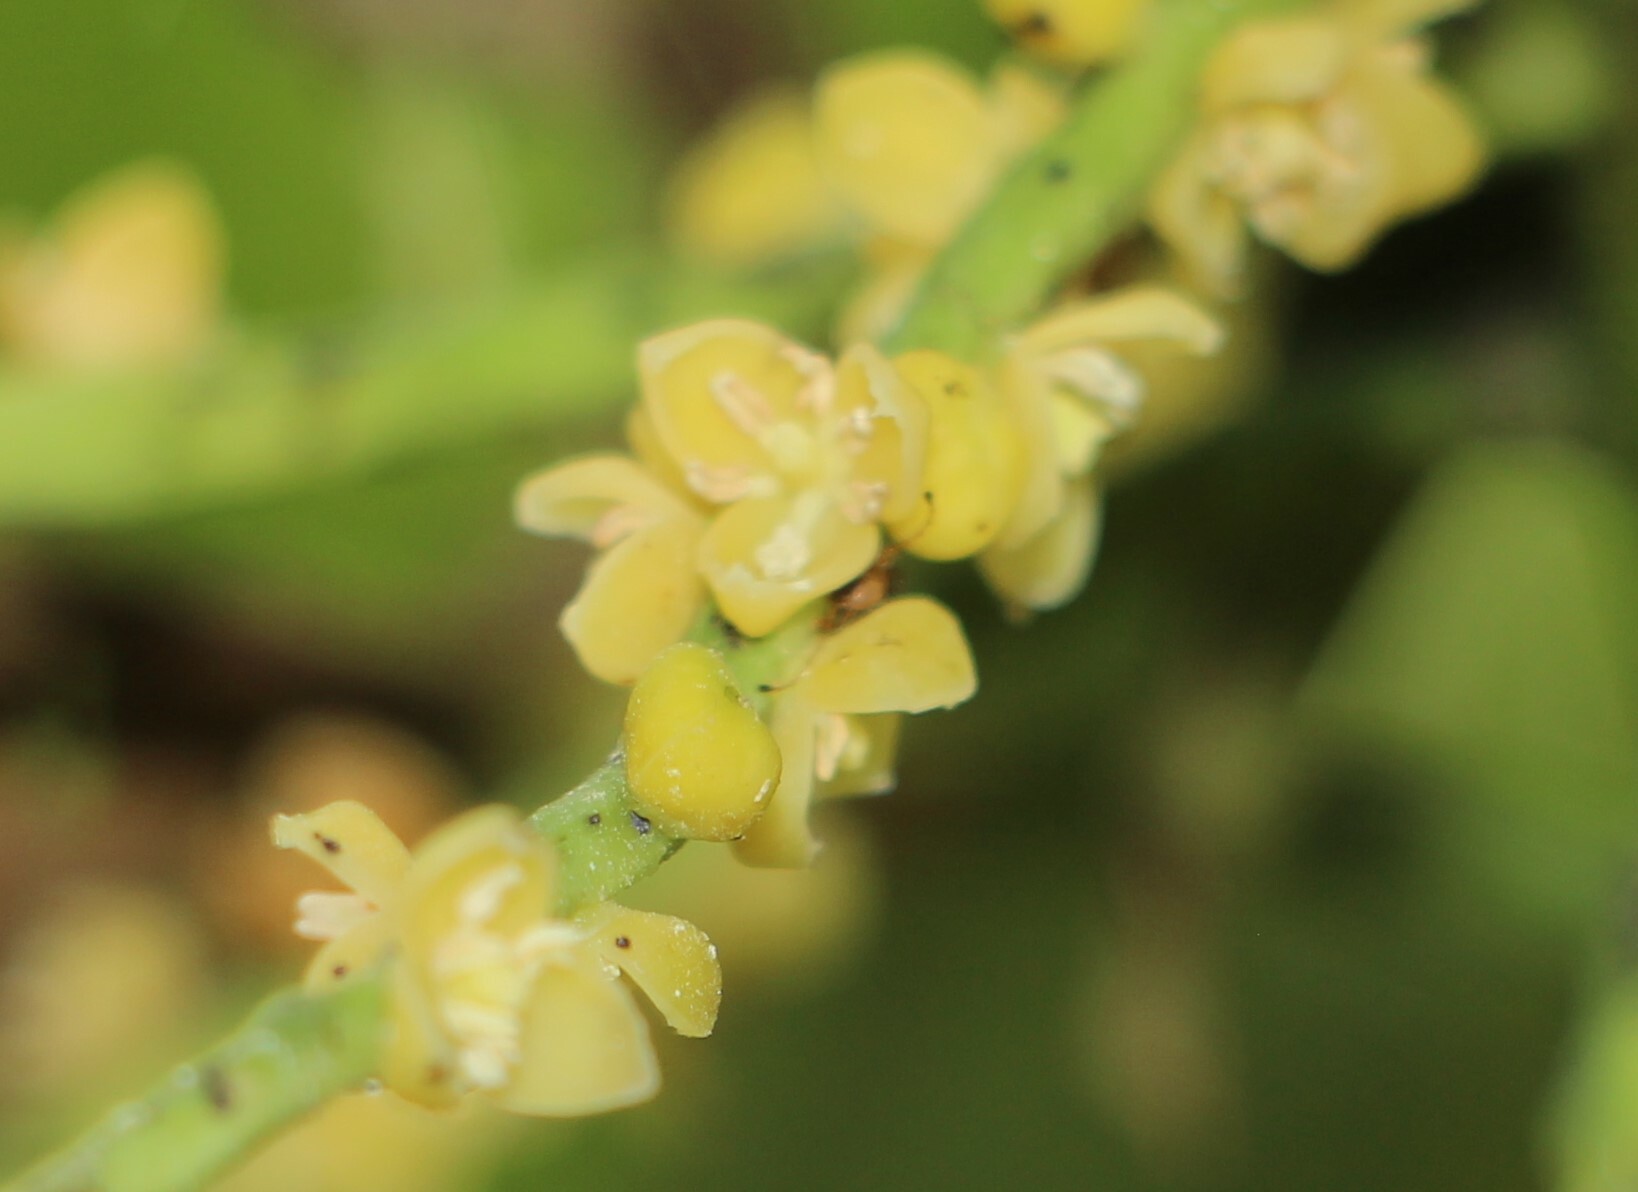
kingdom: Plantae
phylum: Tracheophyta
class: Liliopsida
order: Arecales
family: Arecaceae
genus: Chamaedorea
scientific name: Chamaedorea linearis
